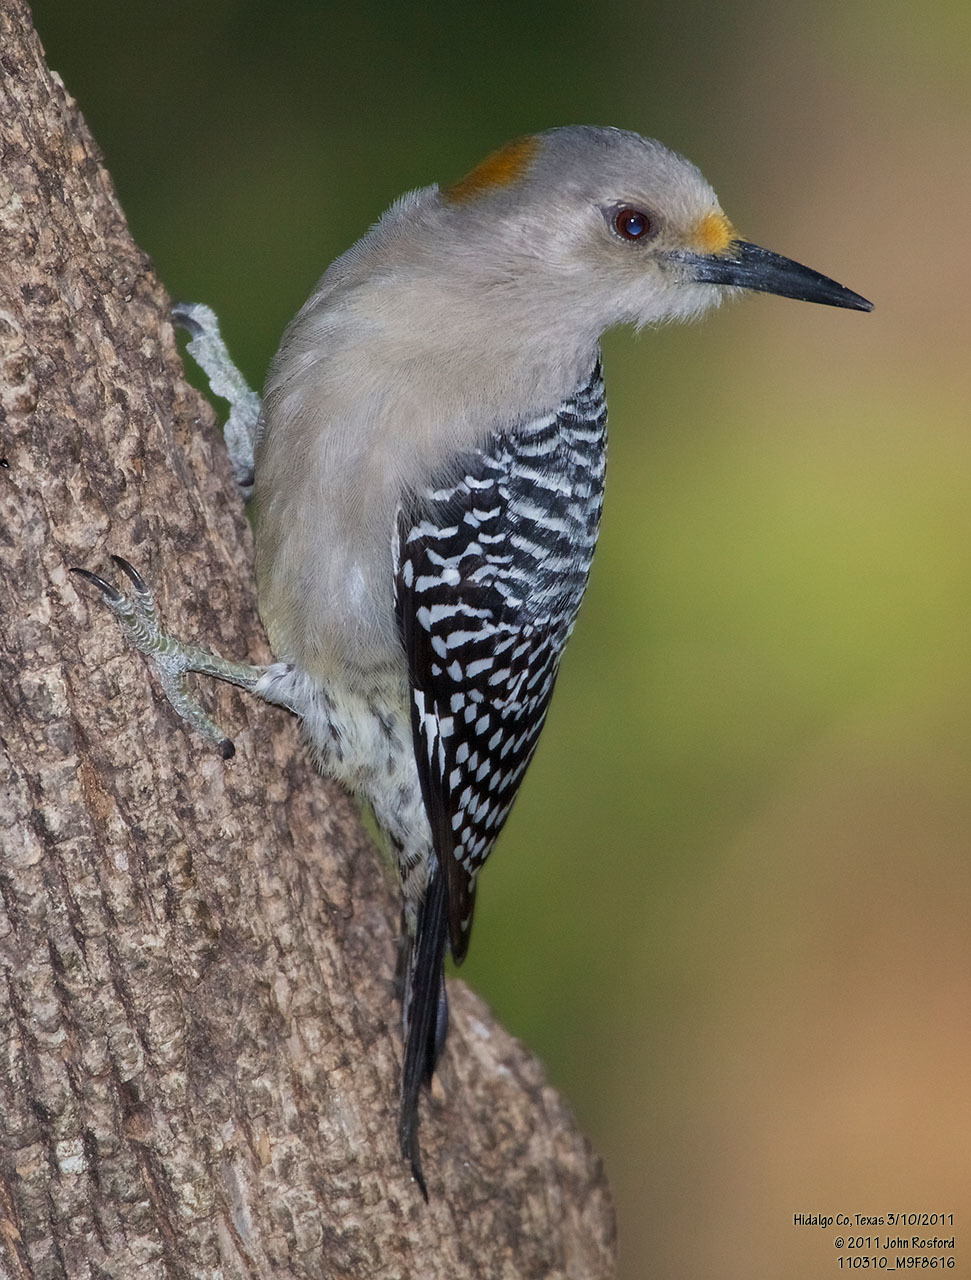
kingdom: Animalia
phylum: Chordata
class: Aves
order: Piciformes
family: Picidae
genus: Melanerpes
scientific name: Melanerpes aurifrons
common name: Golden-fronted woodpecker
